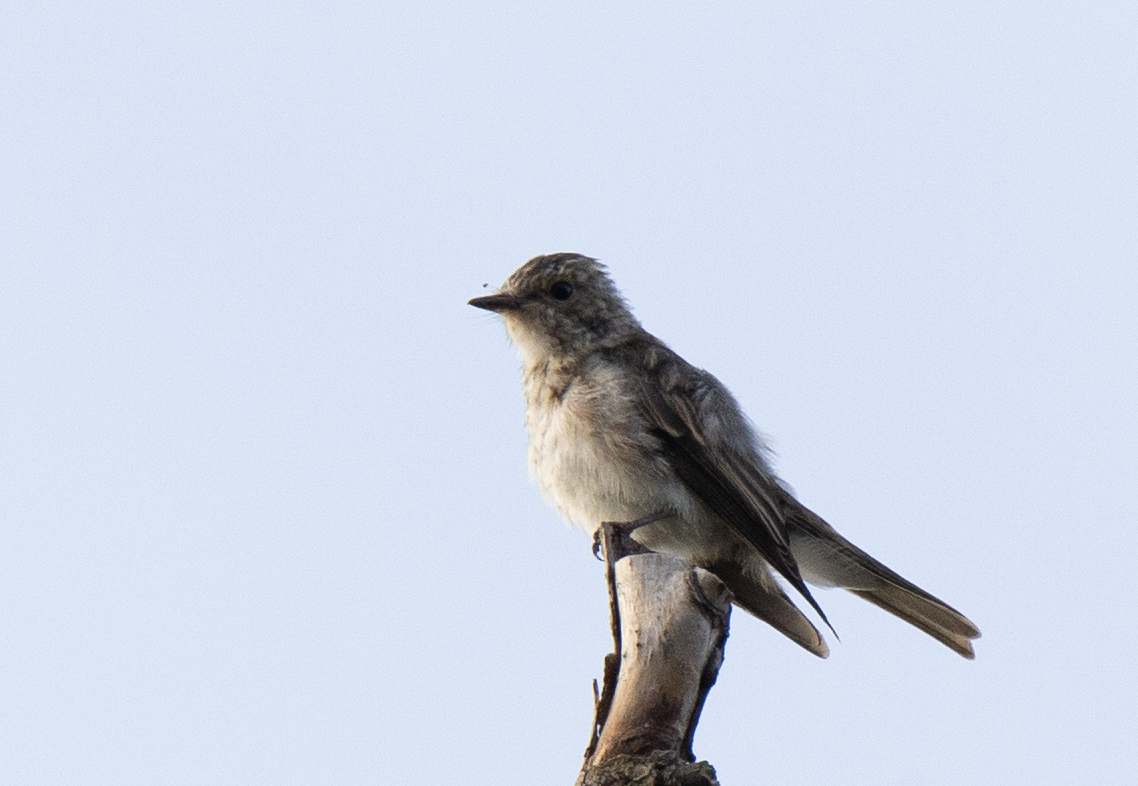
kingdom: Animalia
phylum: Chordata
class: Aves
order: Passeriformes
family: Muscicapidae
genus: Muscicapa
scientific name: Muscicapa striata
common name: Spotted flycatcher
